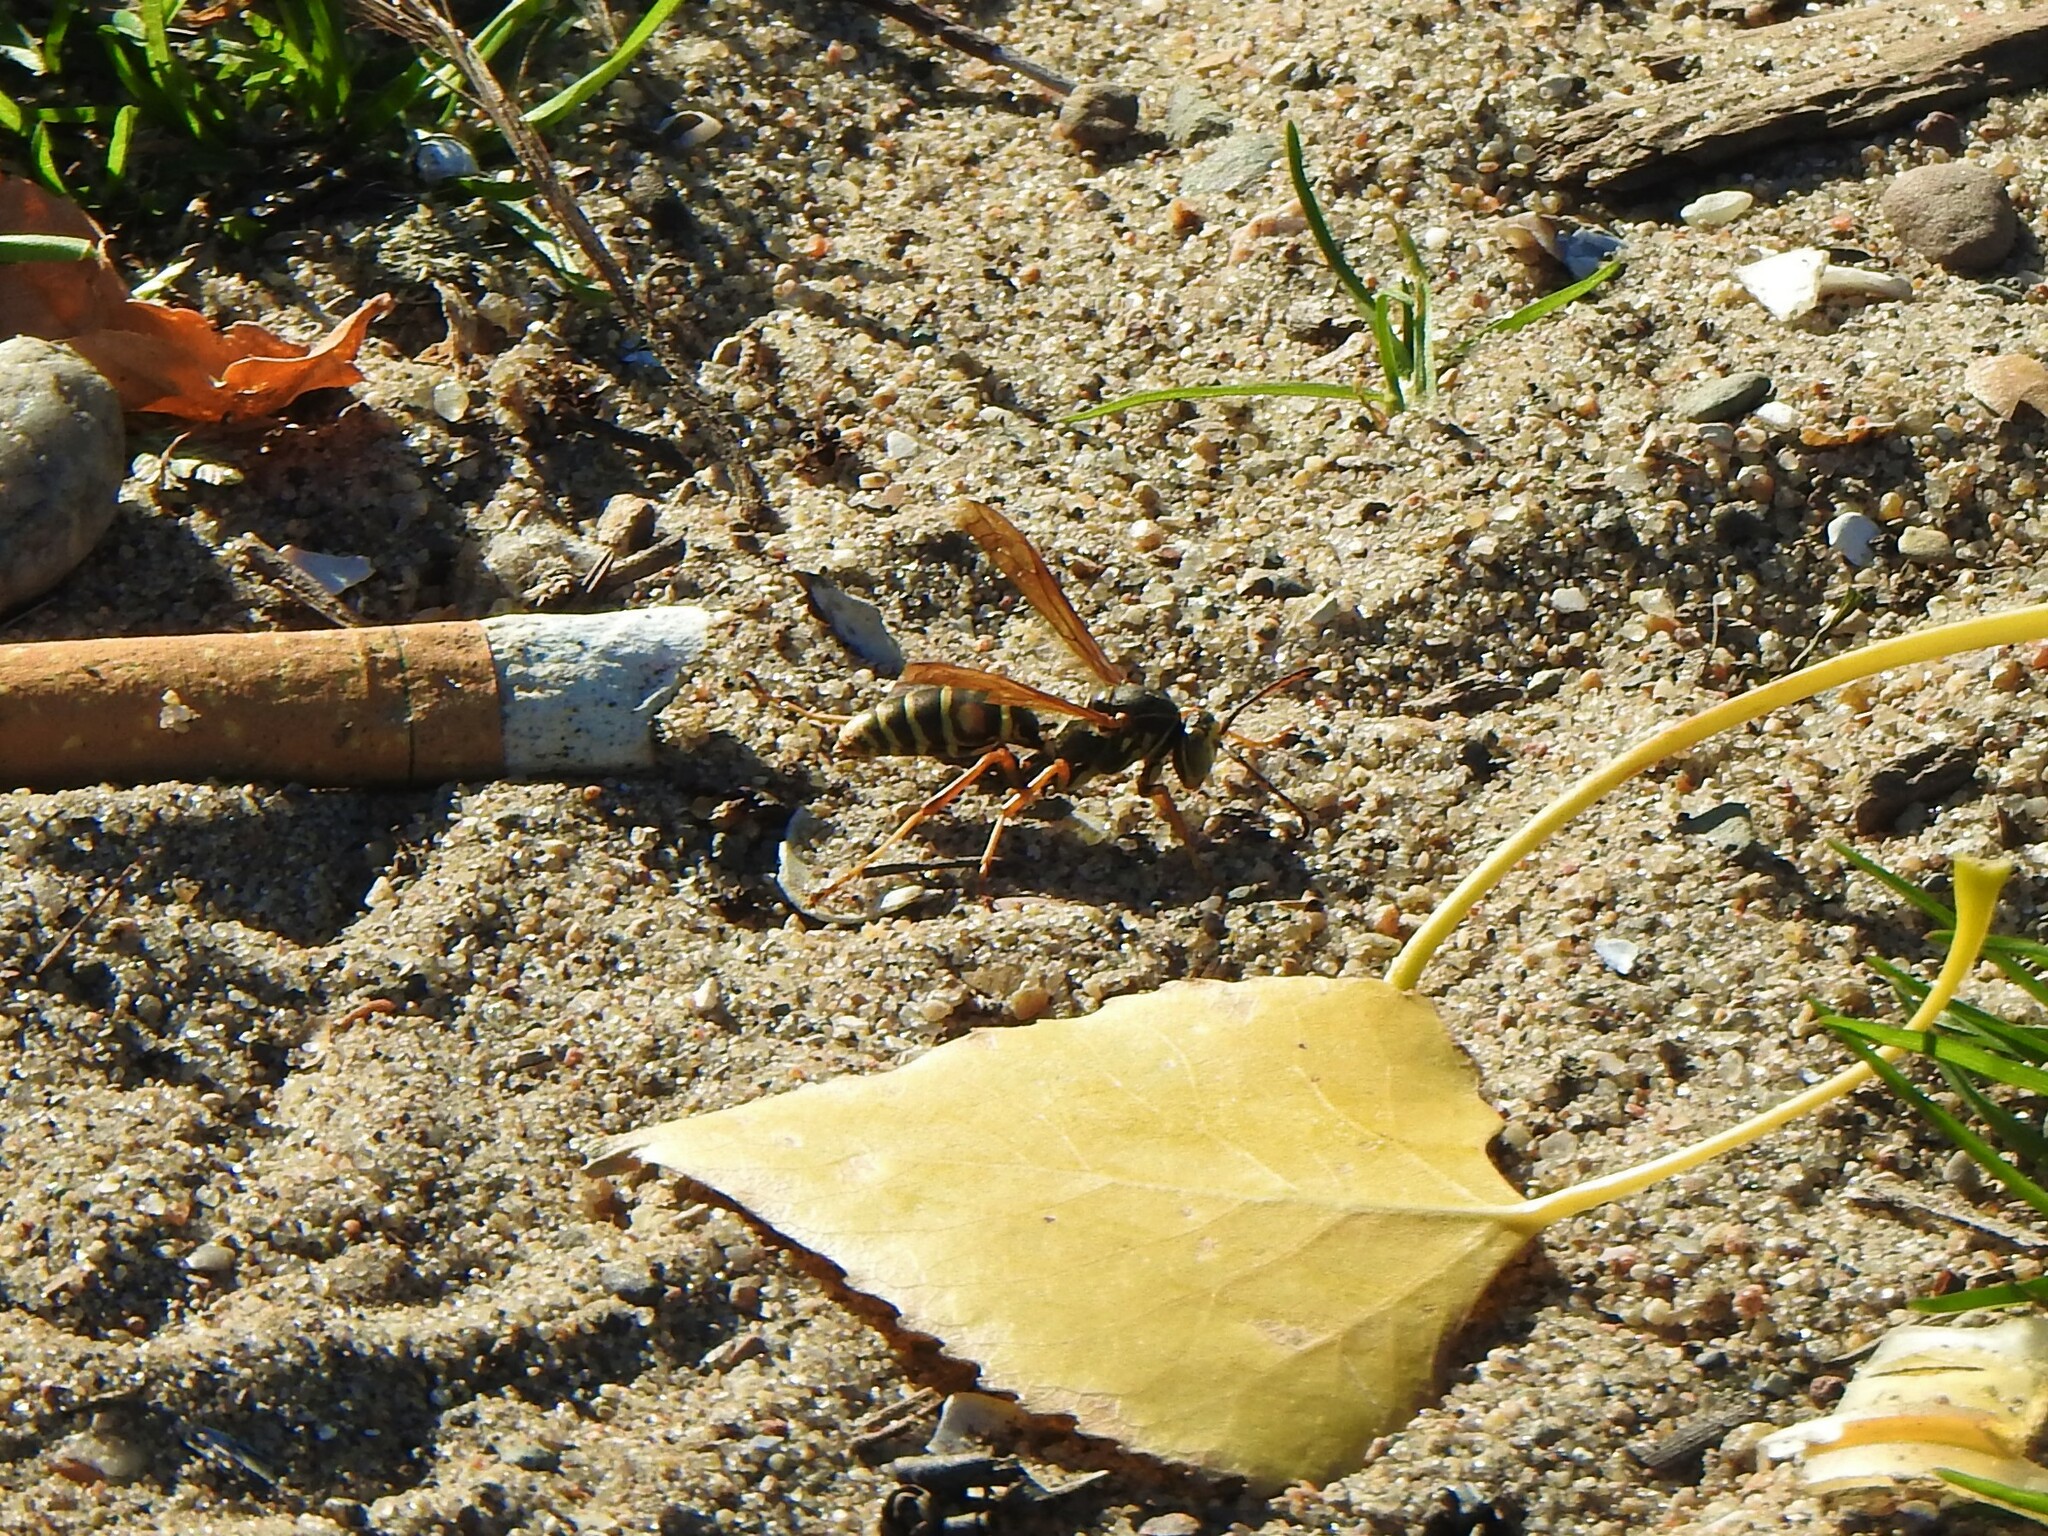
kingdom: Animalia
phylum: Arthropoda
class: Insecta
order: Hymenoptera
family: Eumenidae
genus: Polistes
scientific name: Polistes fuscatus
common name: Dark paper wasp
